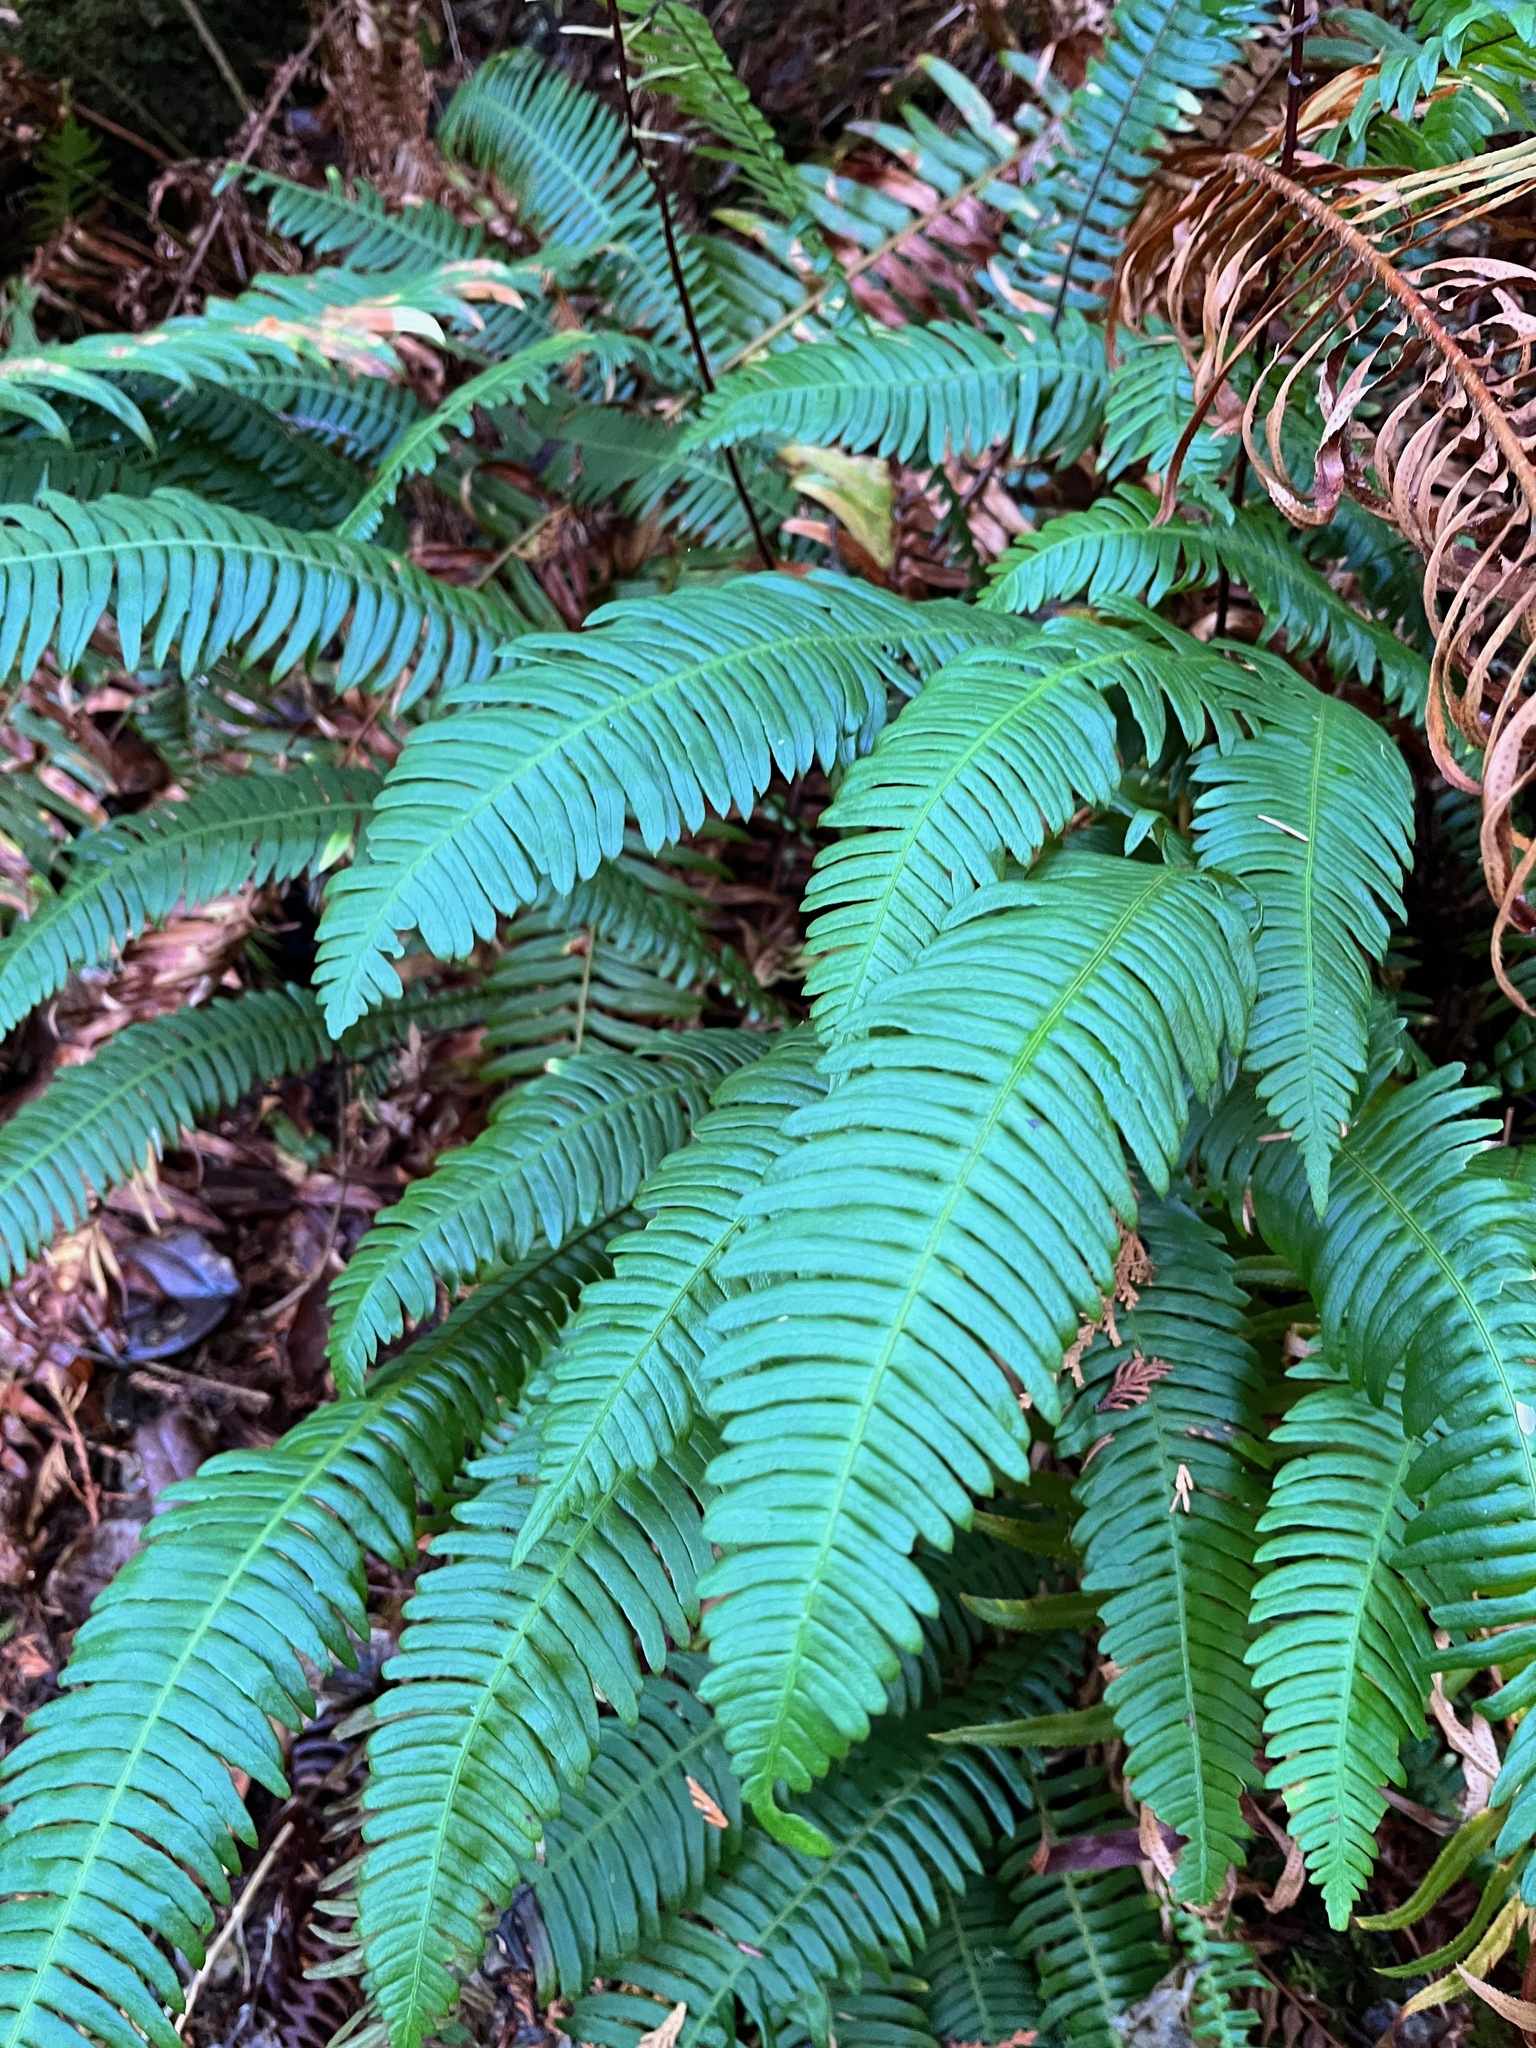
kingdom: Plantae
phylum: Tracheophyta
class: Polypodiopsida
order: Polypodiales
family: Blechnaceae
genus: Struthiopteris
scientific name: Struthiopteris spicant
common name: Deer fern
